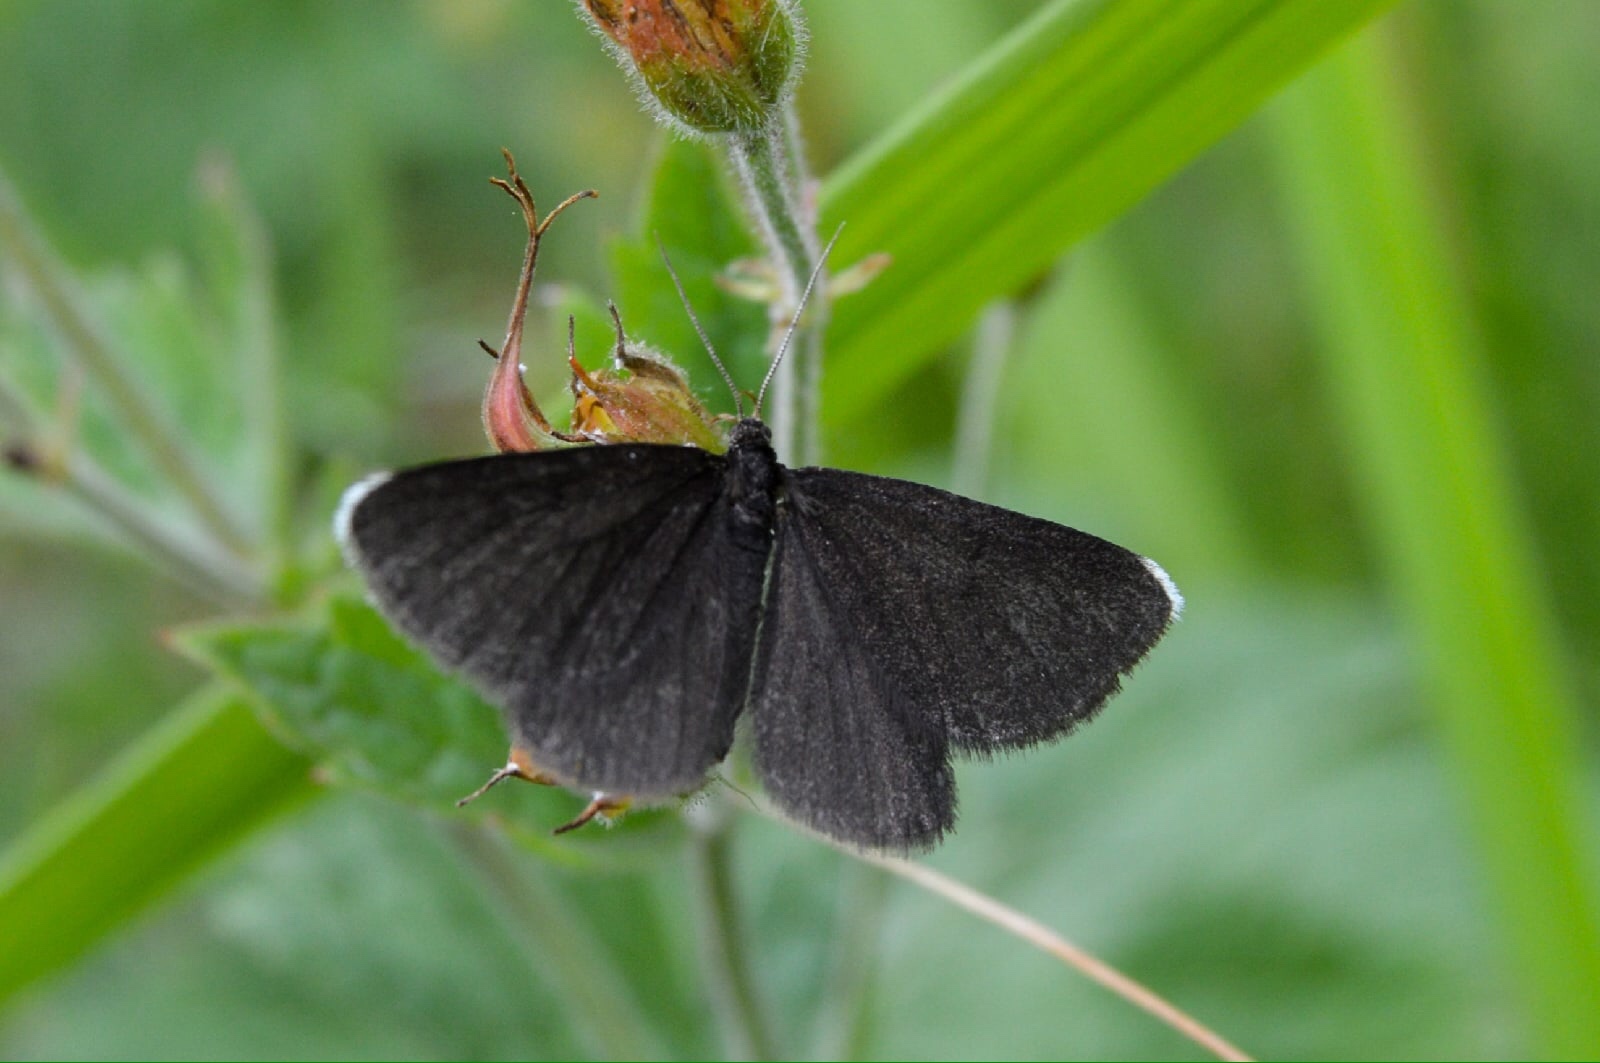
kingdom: Animalia
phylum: Arthropoda
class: Insecta
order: Lepidoptera
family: Geometridae
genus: Odezia
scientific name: Odezia atrata
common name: Chimney sweeper
